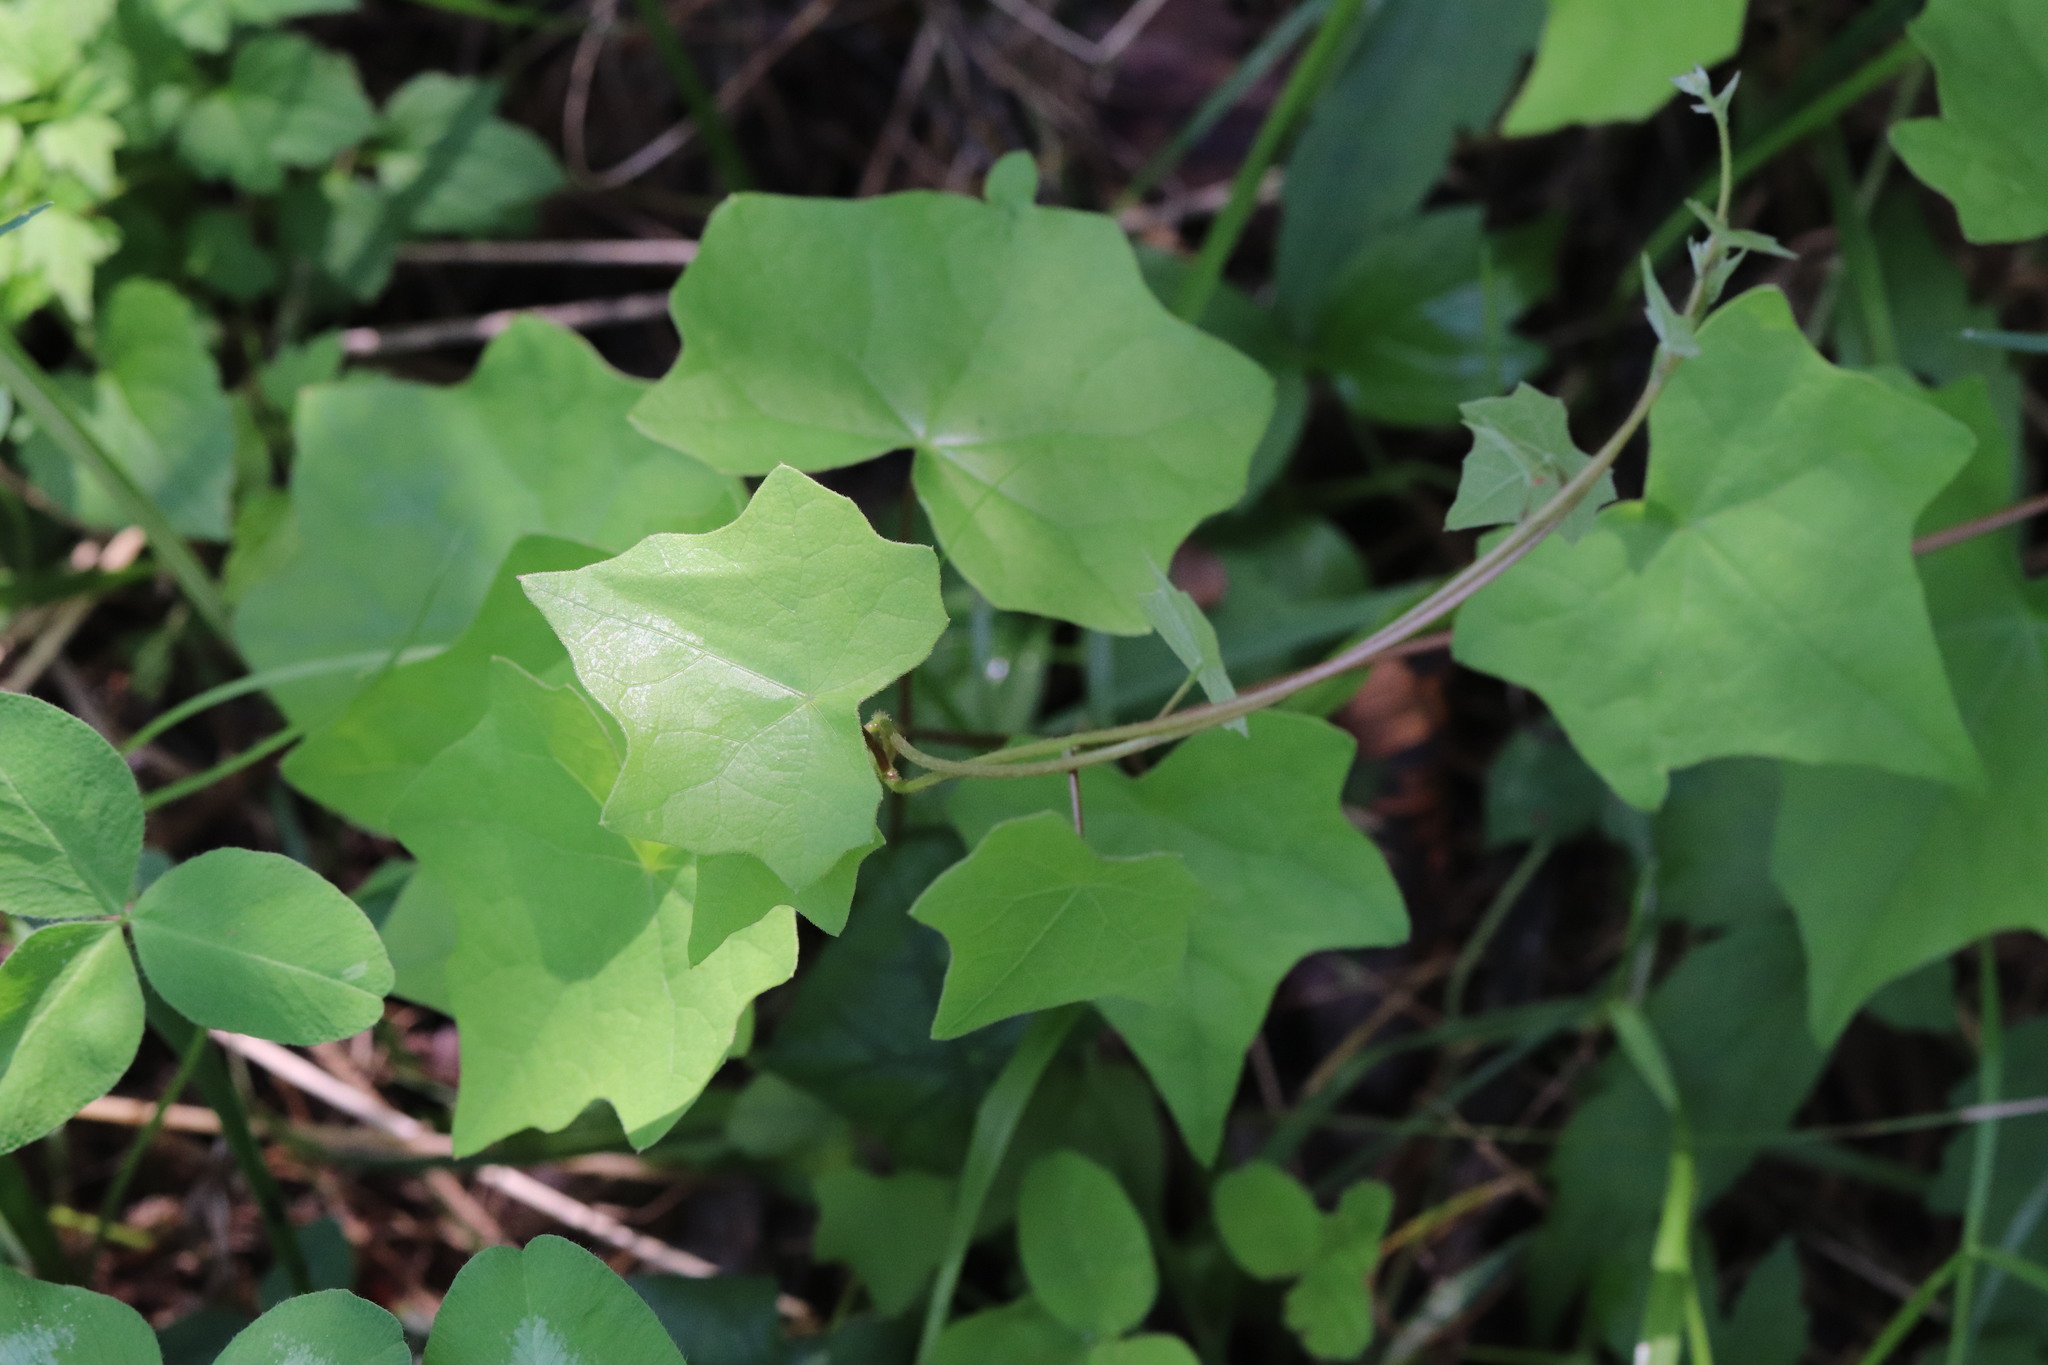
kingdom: Plantae
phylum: Tracheophyta
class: Magnoliopsida
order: Ranunculales
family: Menispermaceae
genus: Menispermum
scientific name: Menispermum dauricum
